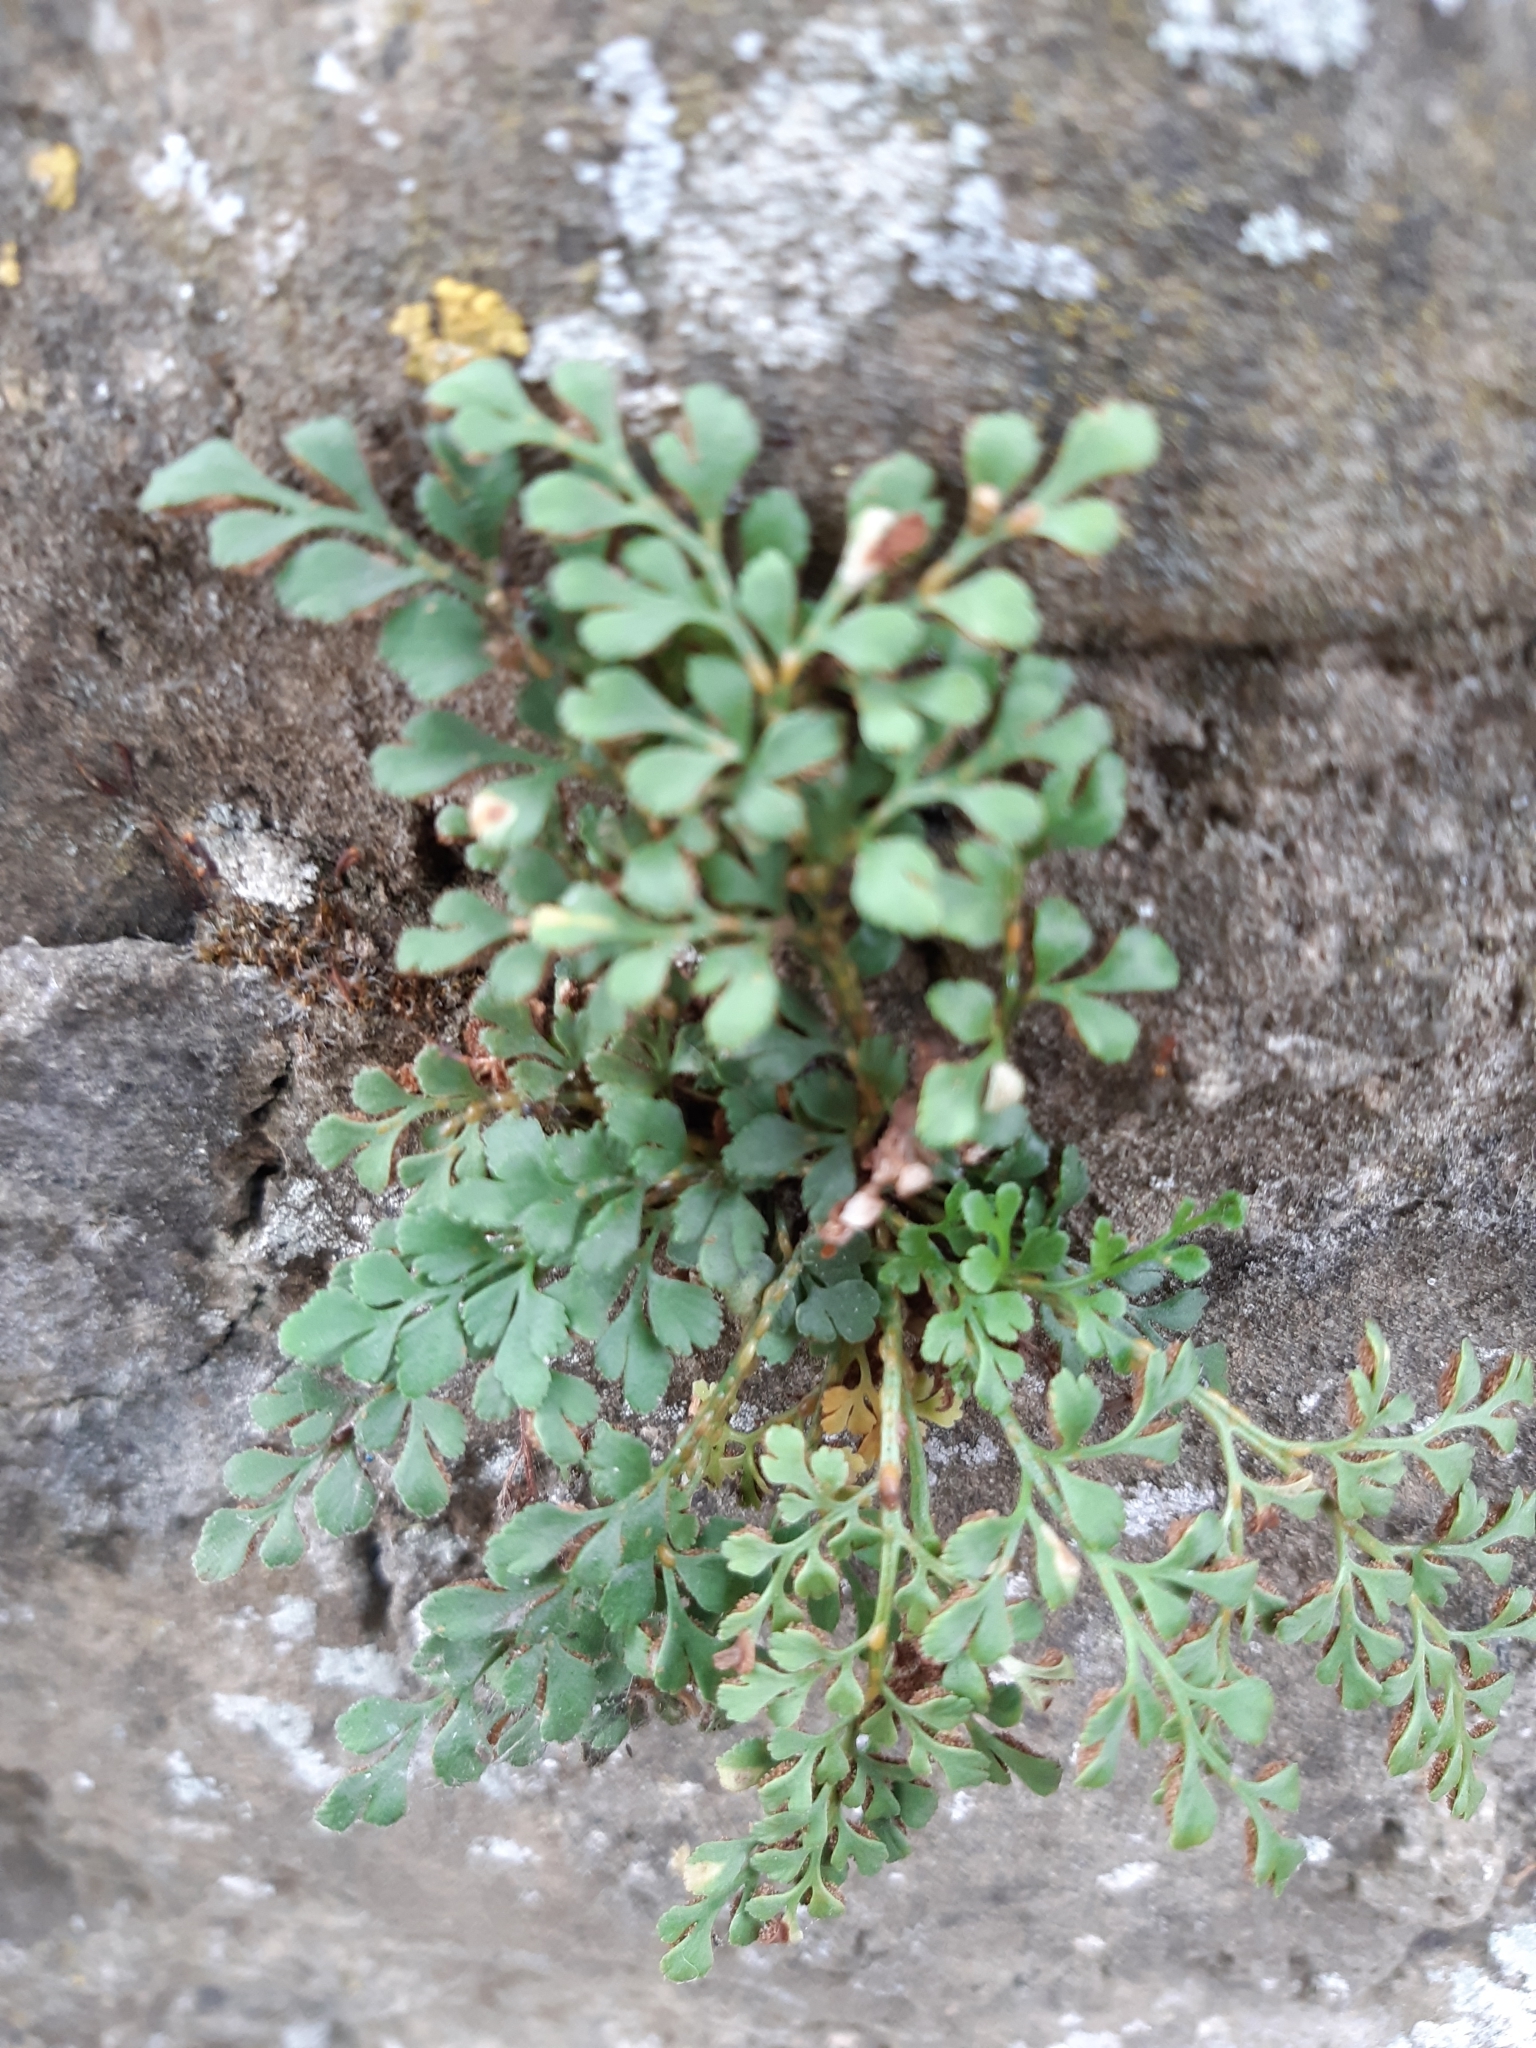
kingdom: Plantae
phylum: Tracheophyta
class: Polypodiopsida
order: Polypodiales
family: Aspleniaceae
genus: Asplenium
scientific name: Asplenium ruta-muraria
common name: Wall-rue
